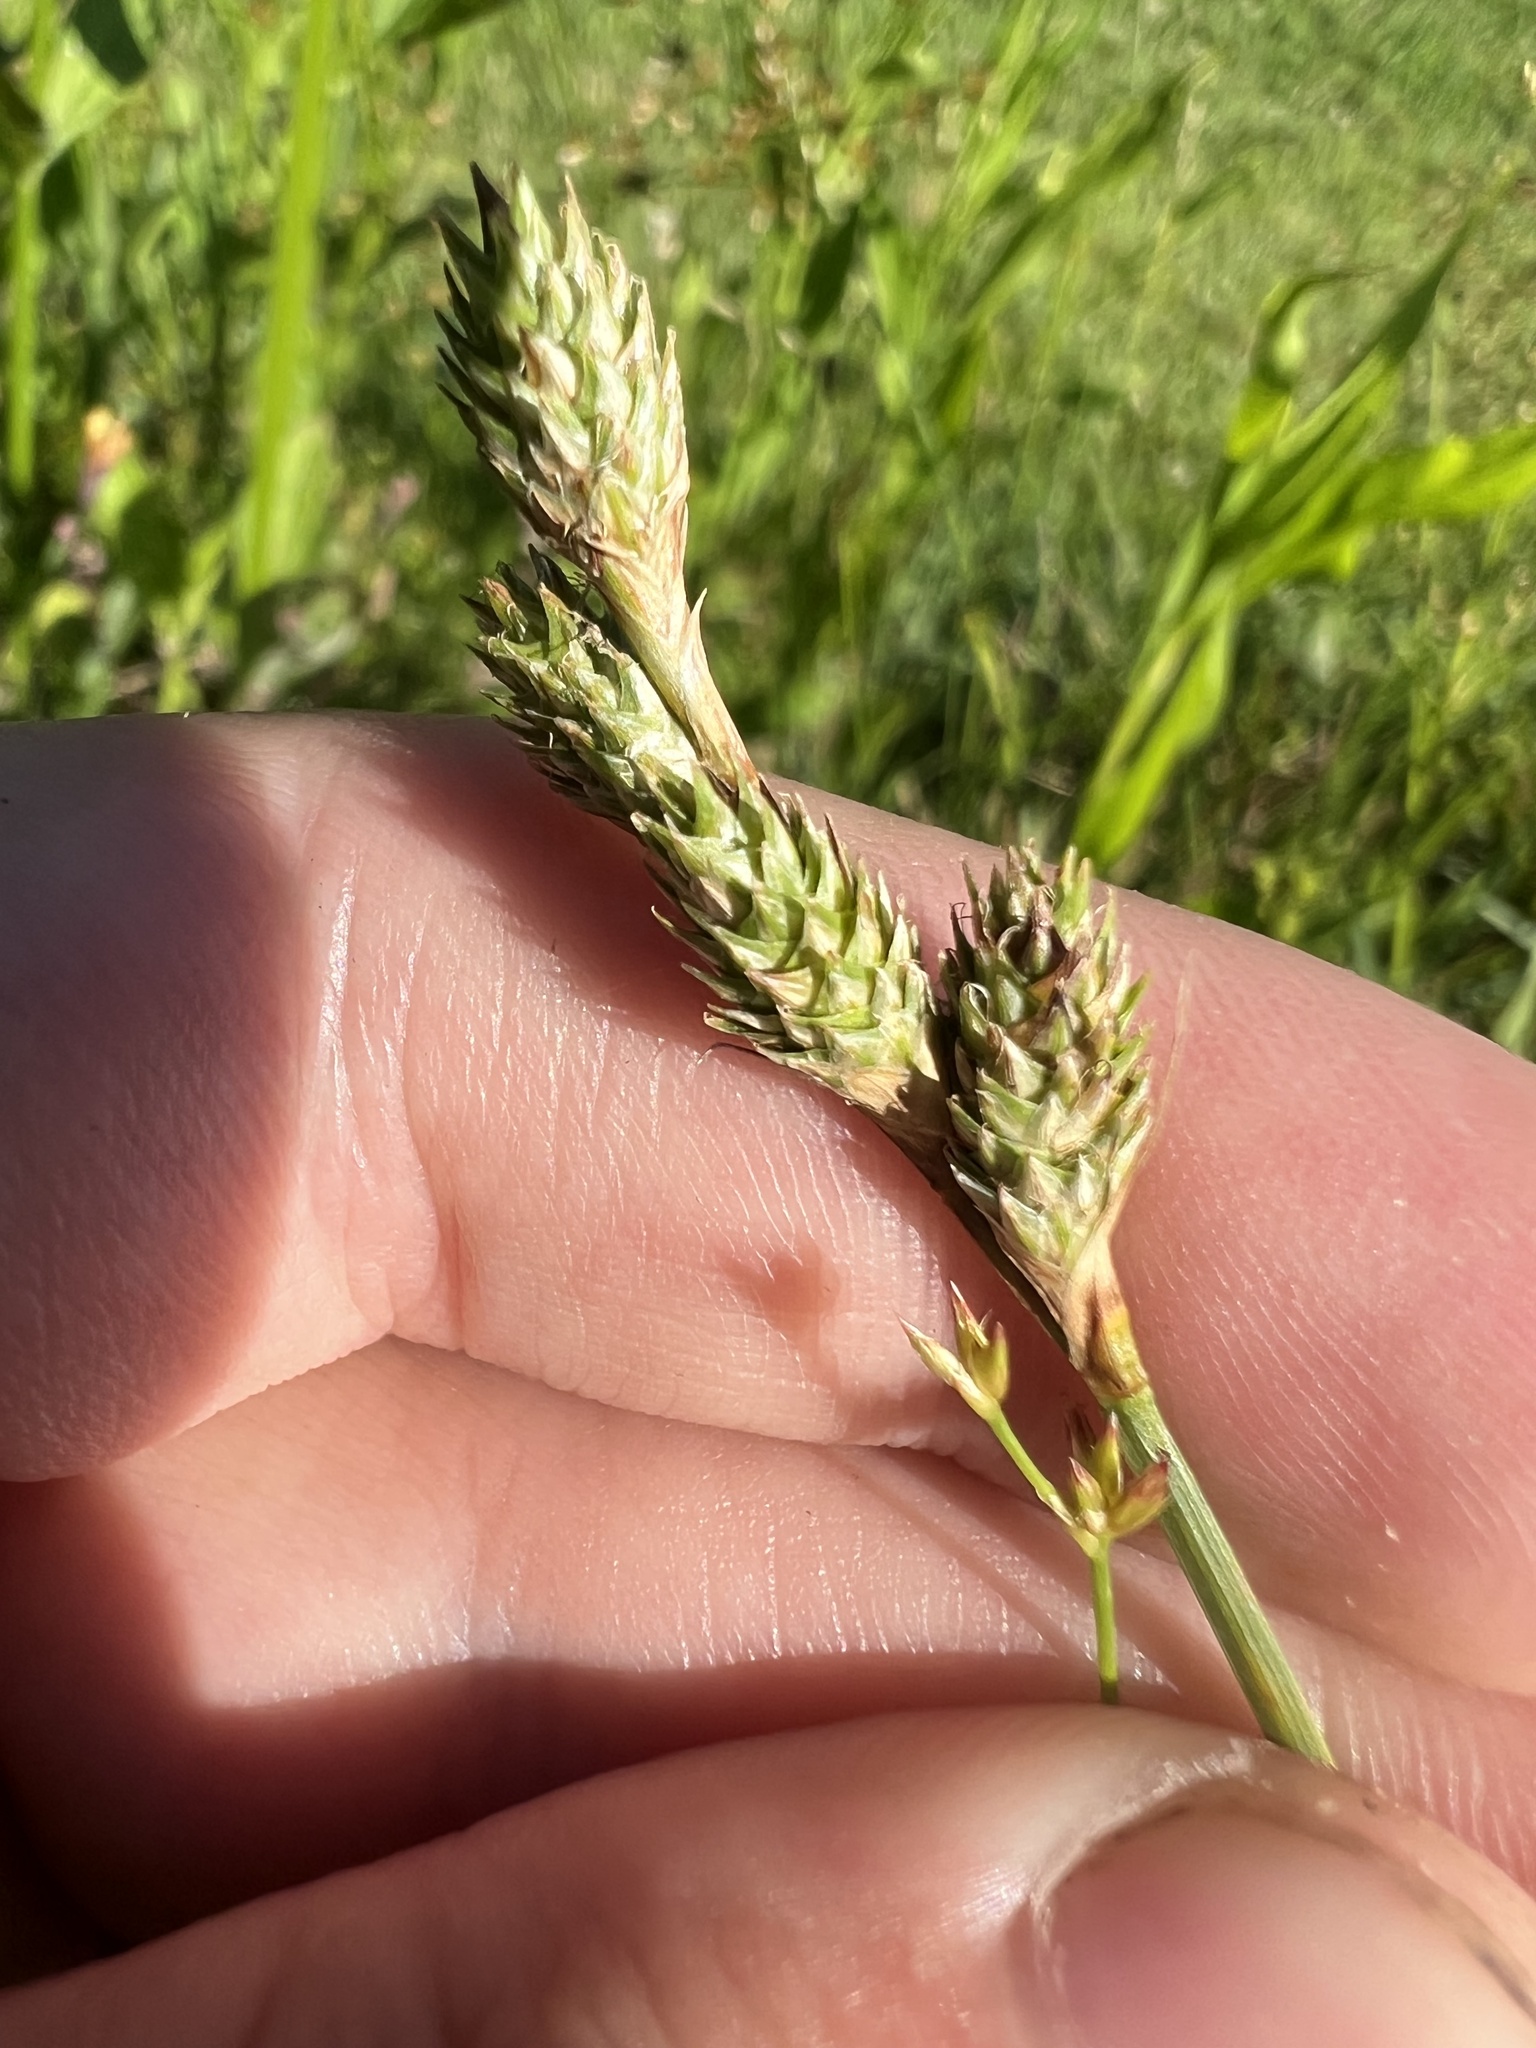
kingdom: Plantae
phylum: Tracheophyta
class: Liliopsida
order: Poales
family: Cyperaceae
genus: Carex
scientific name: Carex longii
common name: Long's sedge
